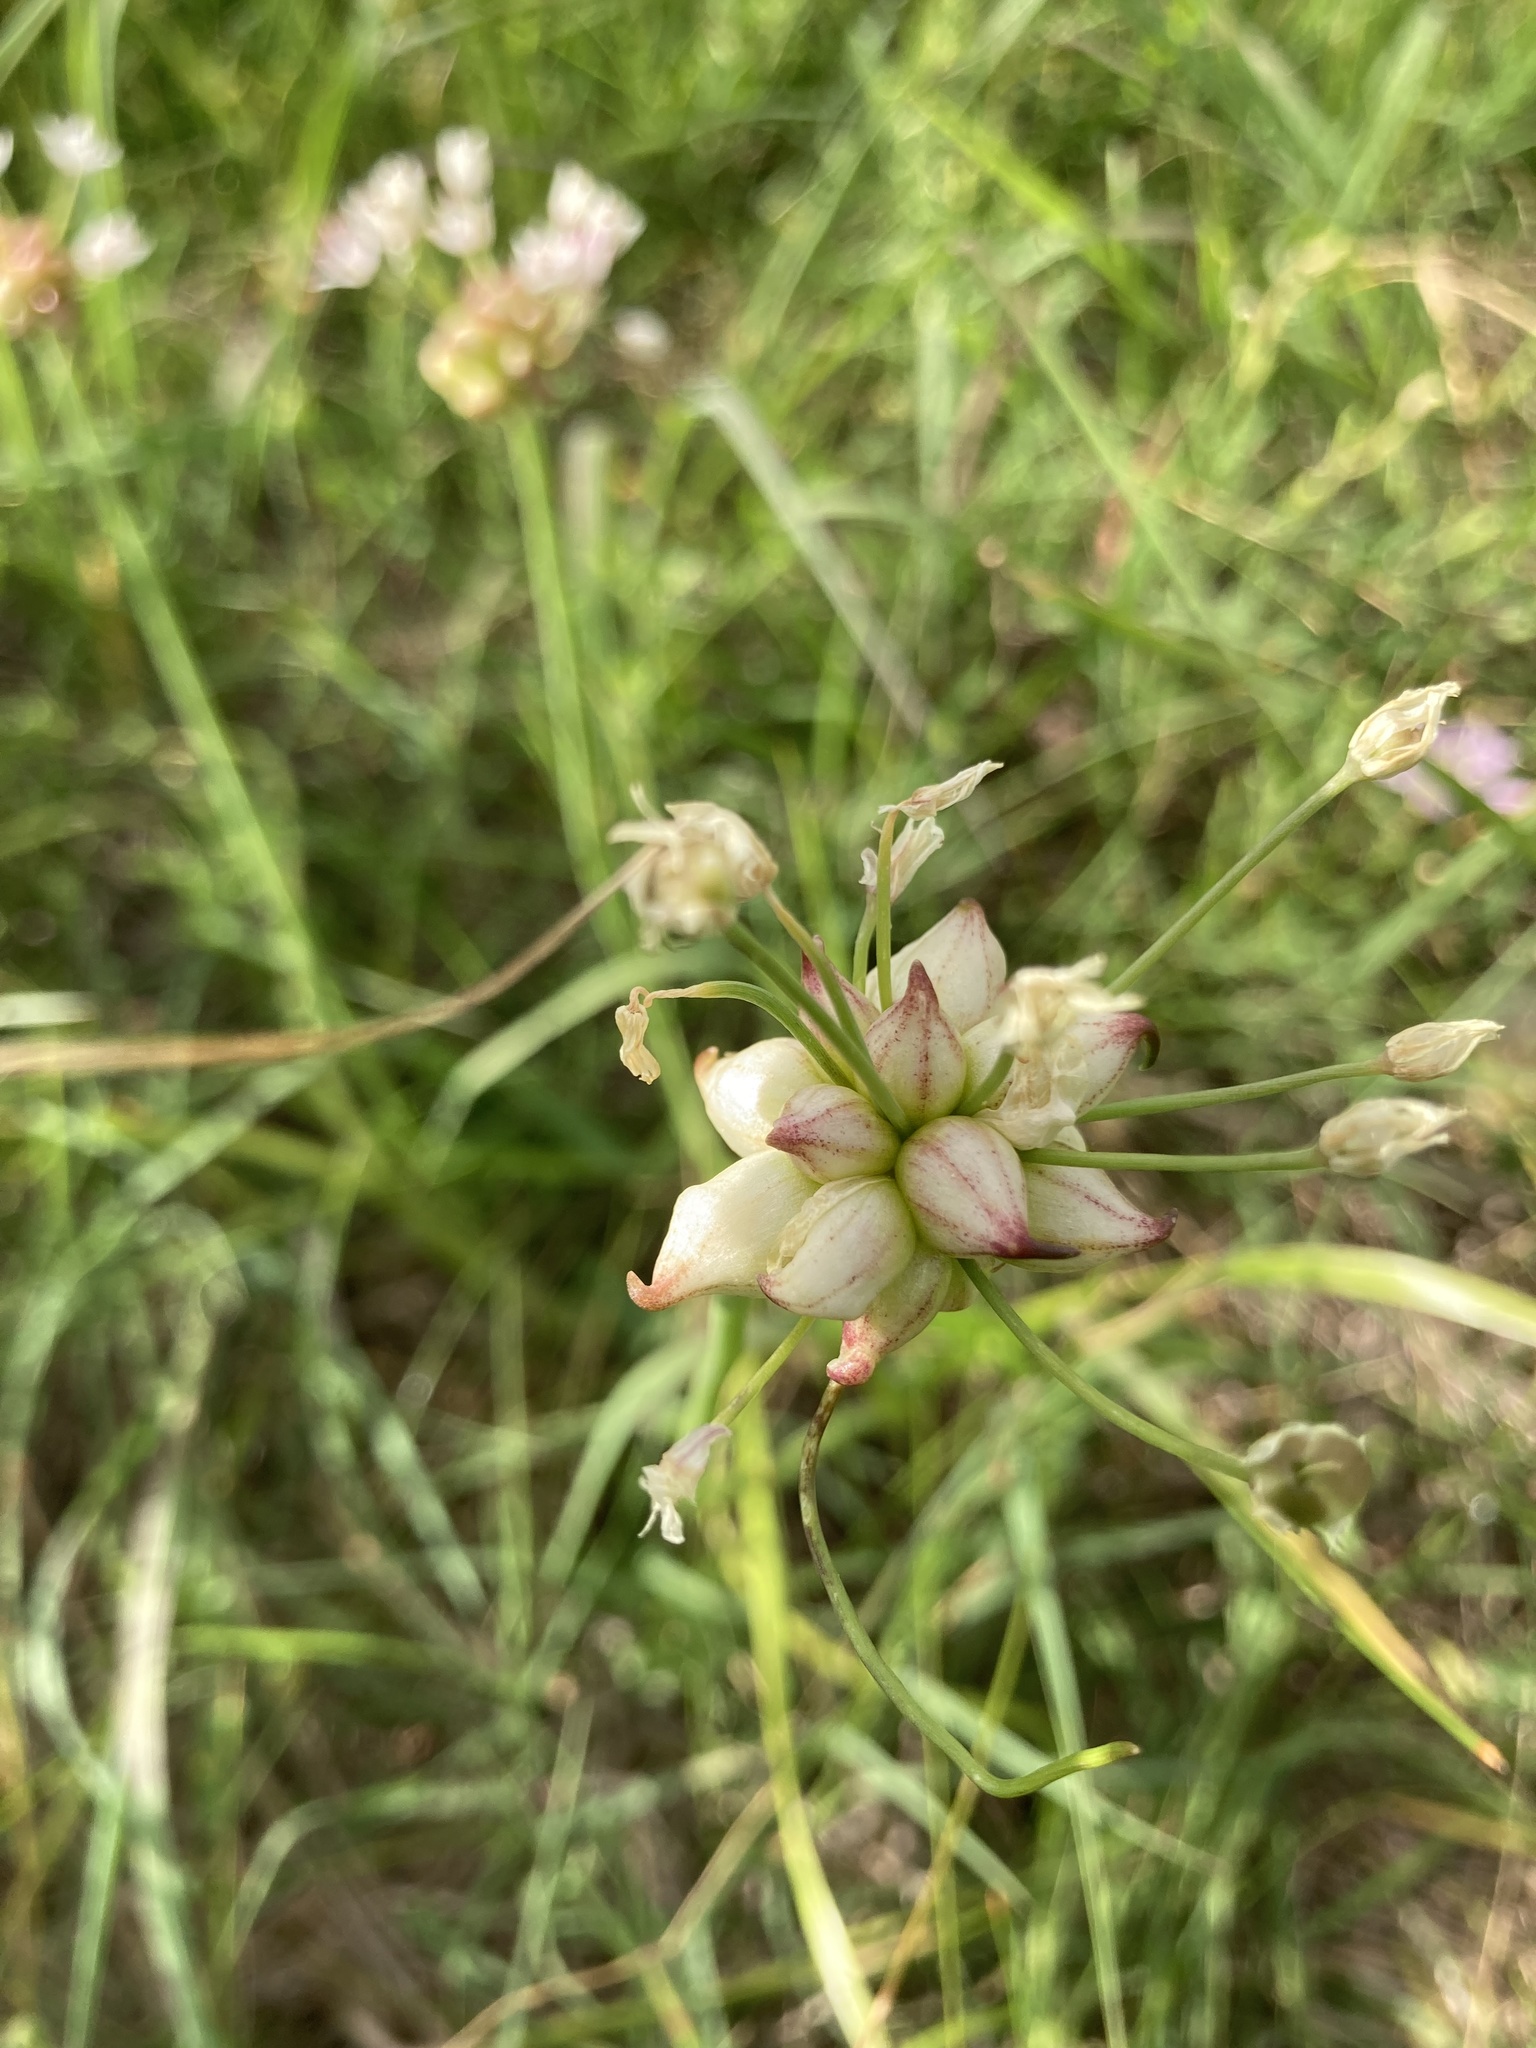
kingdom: Plantae
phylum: Tracheophyta
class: Liliopsida
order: Asparagales
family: Amaryllidaceae
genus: Allium
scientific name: Allium canadense
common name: Meadow garlic
